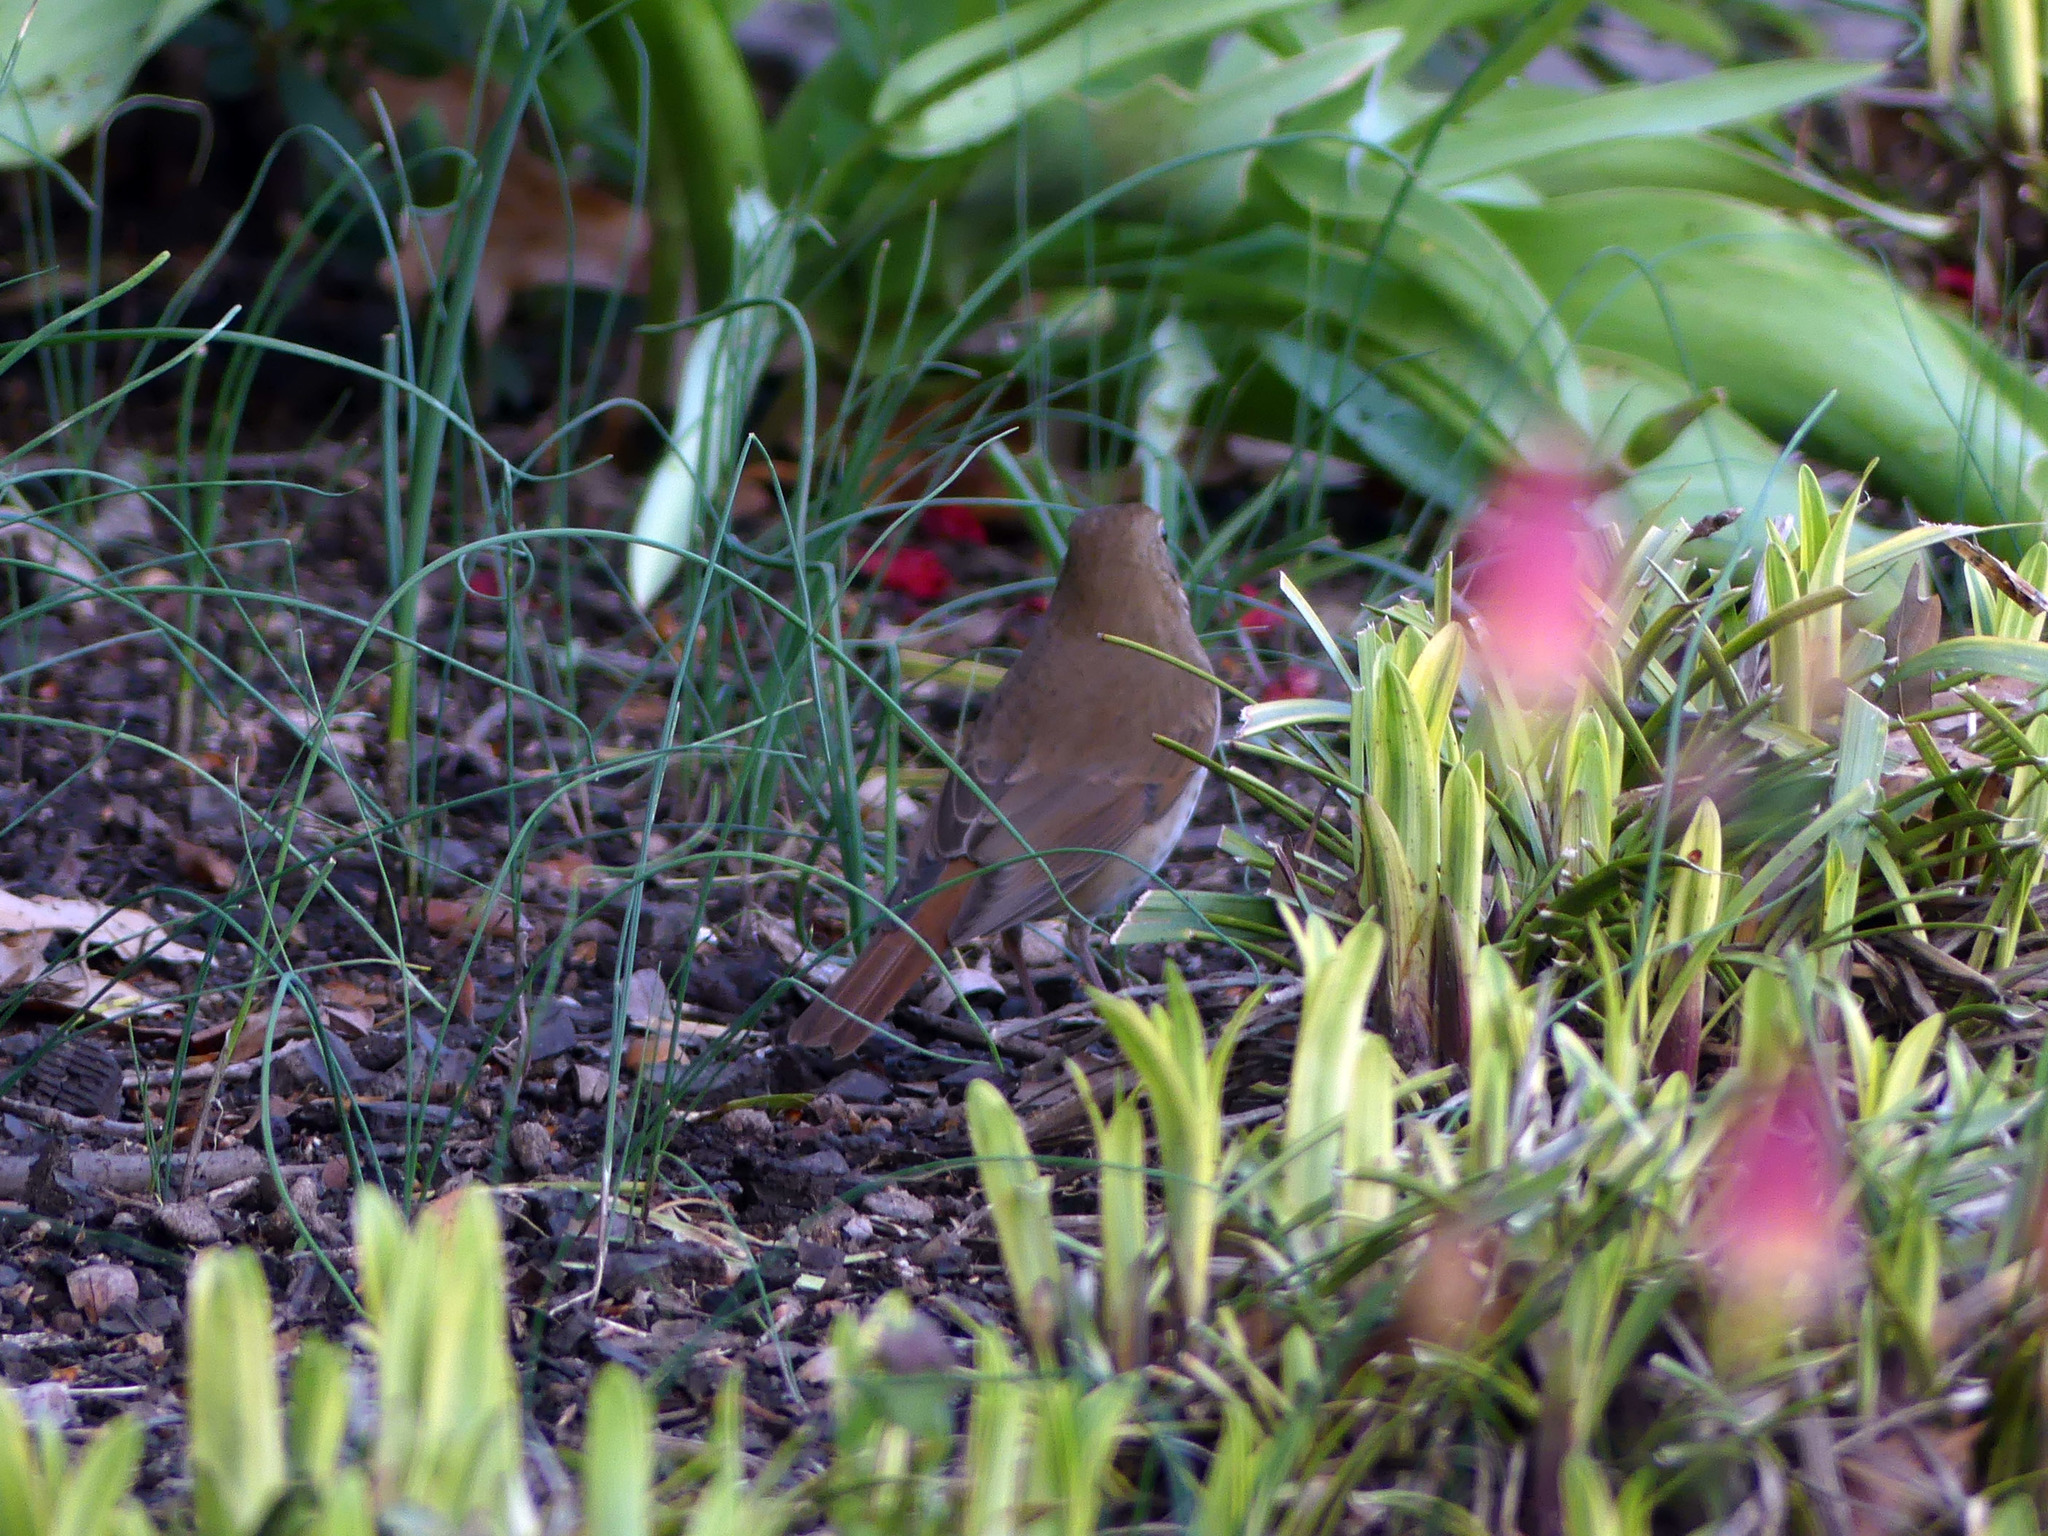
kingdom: Animalia
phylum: Chordata
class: Aves
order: Passeriformes
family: Turdidae
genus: Catharus
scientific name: Catharus guttatus
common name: Hermit thrush
